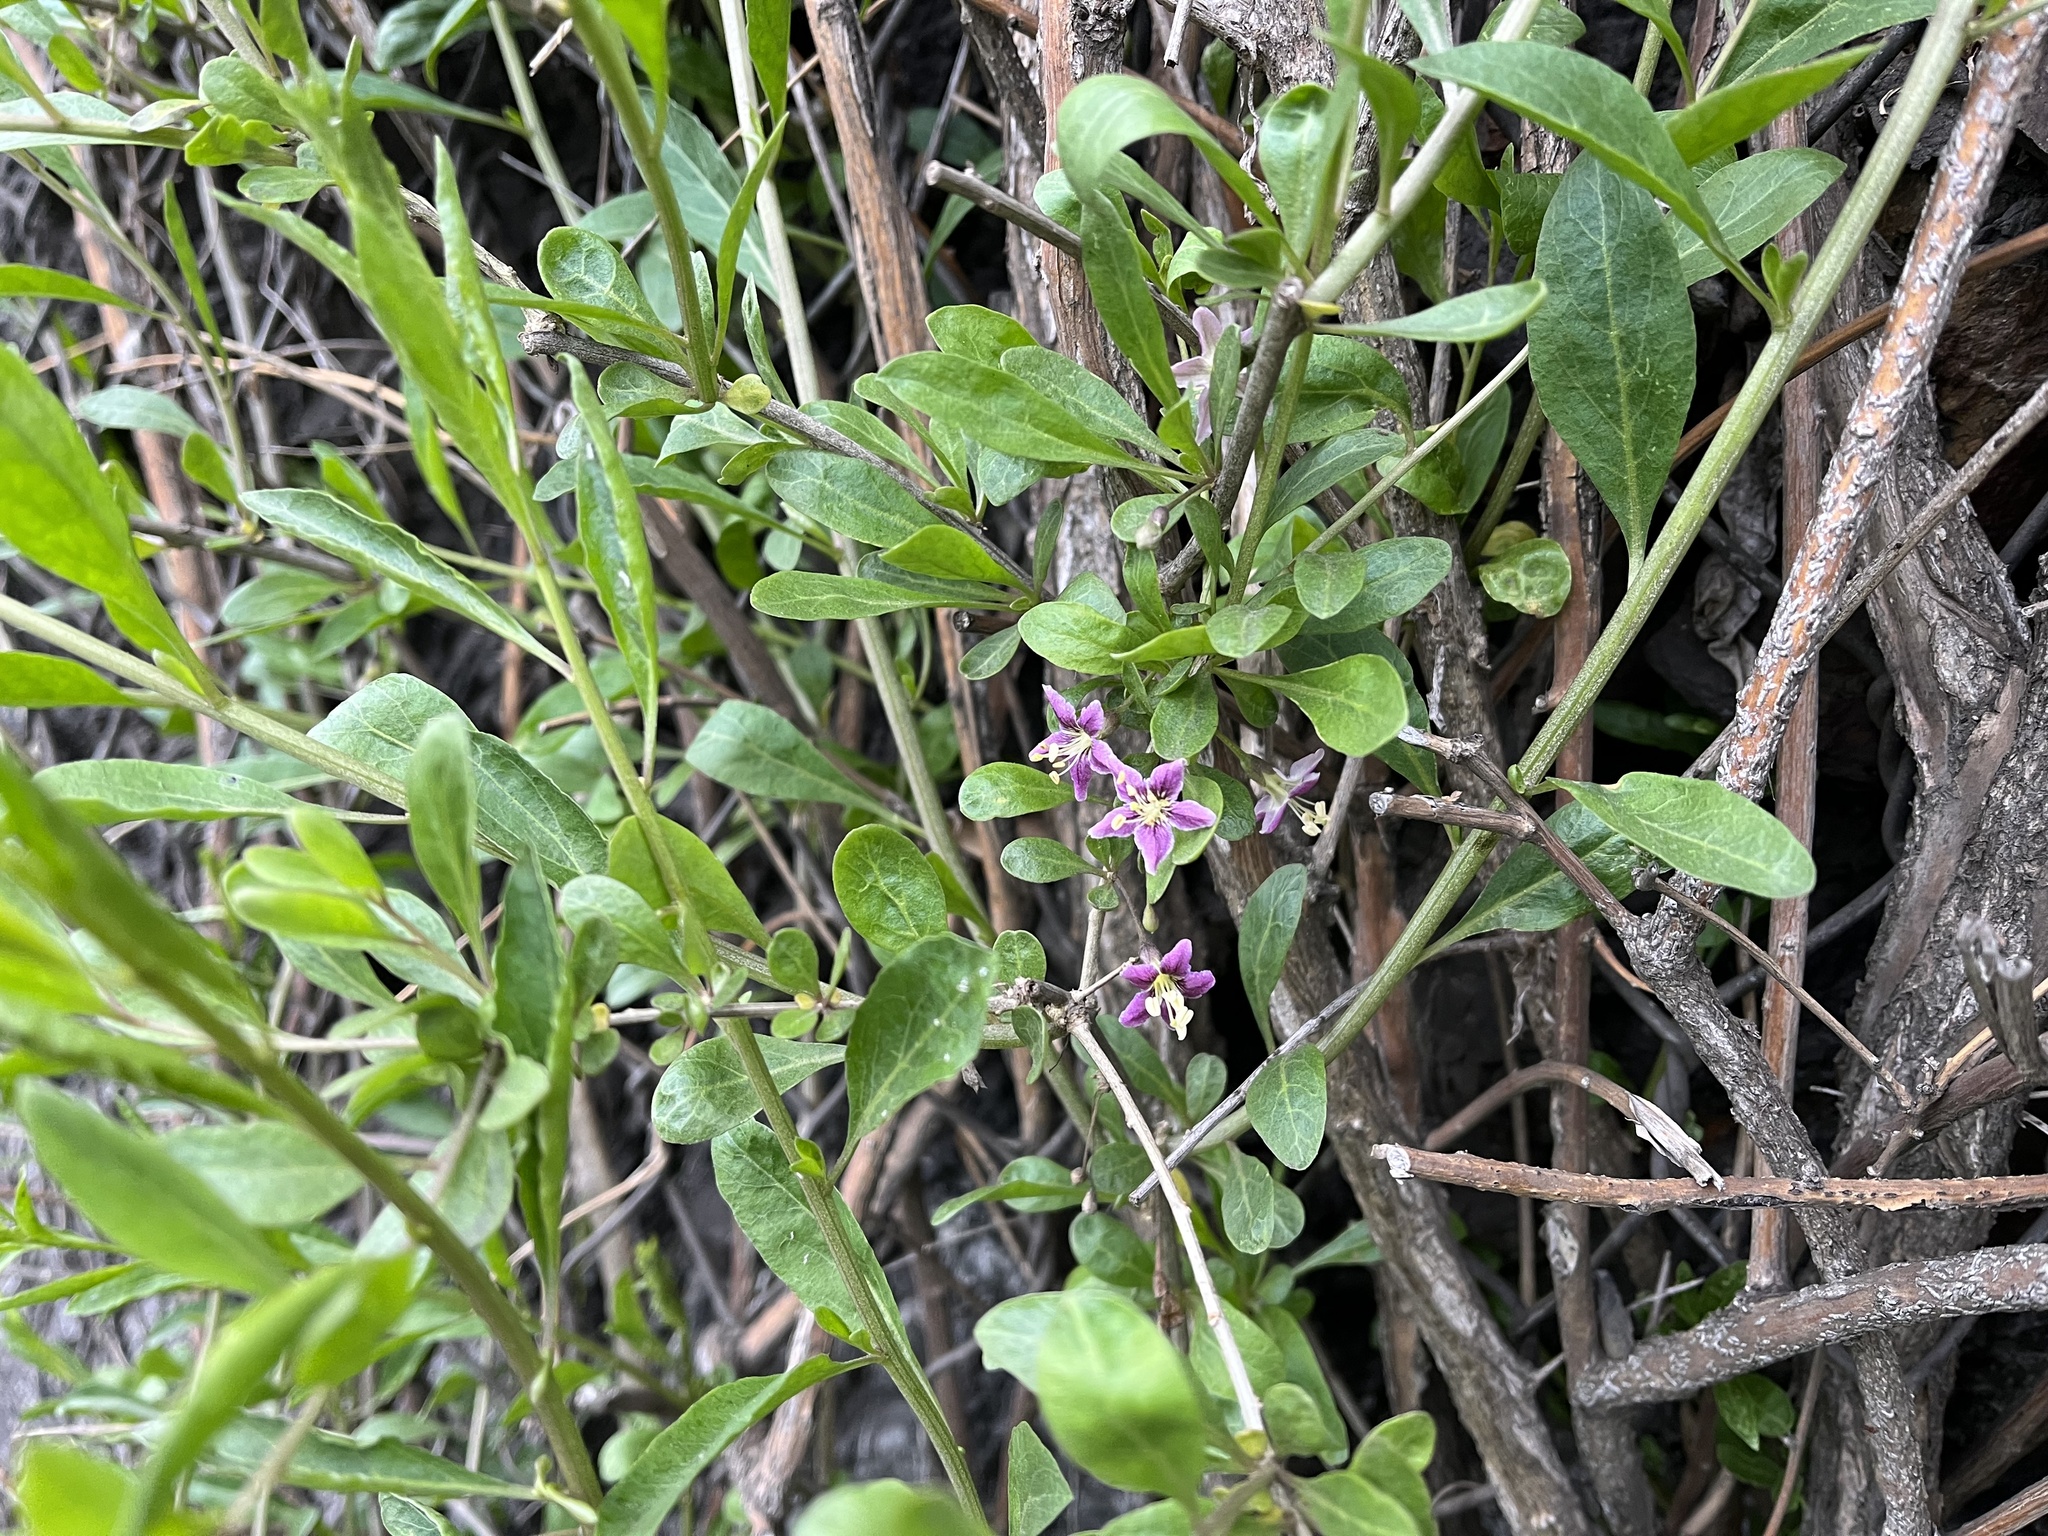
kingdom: Plantae
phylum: Tracheophyta
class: Magnoliopsida
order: Solanales
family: Solanaceae
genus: Lycium
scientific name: Lycium barbarum
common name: Duke of argyll's teaplant
